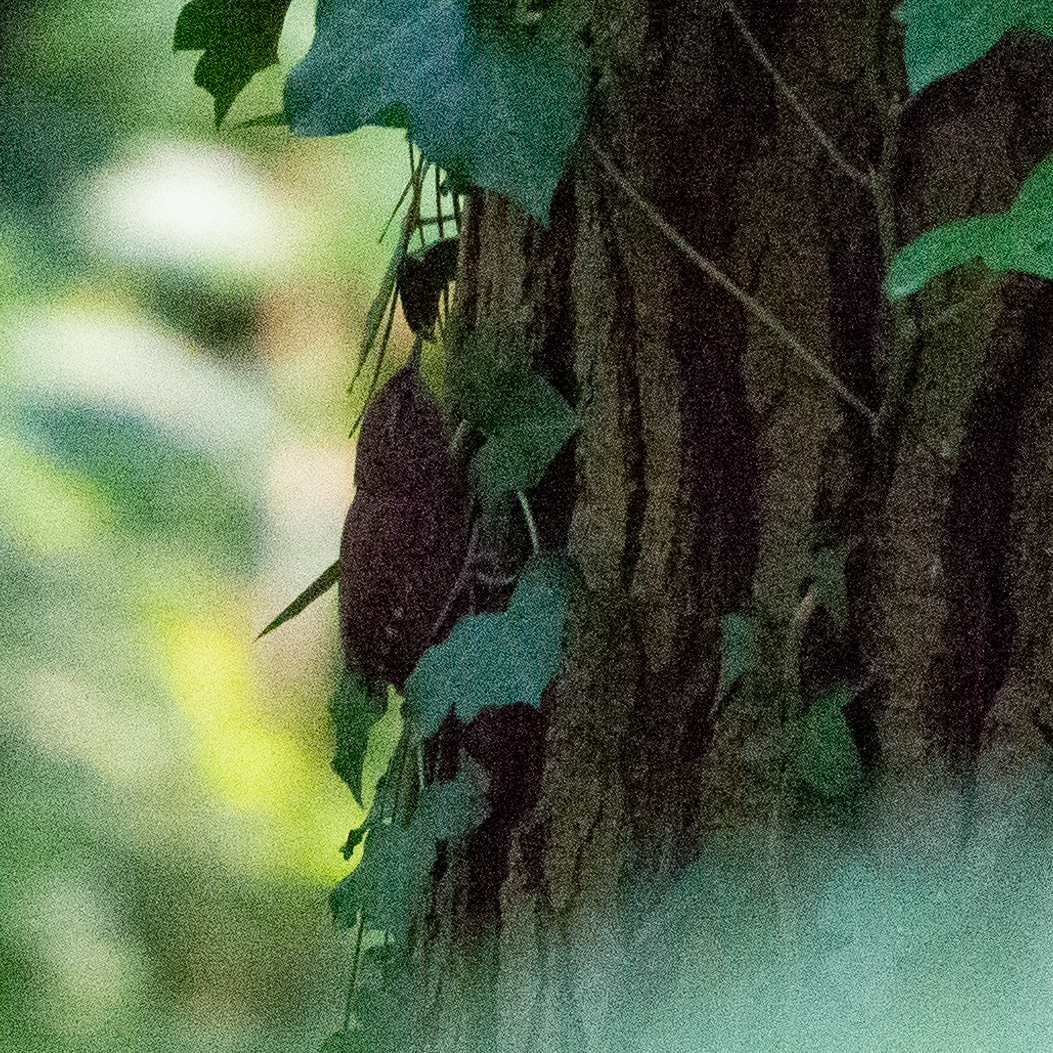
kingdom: Animalia
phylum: Chordata
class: Aves
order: Passeriformes
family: Troglodytidae
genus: Troglodytes
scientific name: Troglodytes troglodytes
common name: Eurasian wren
